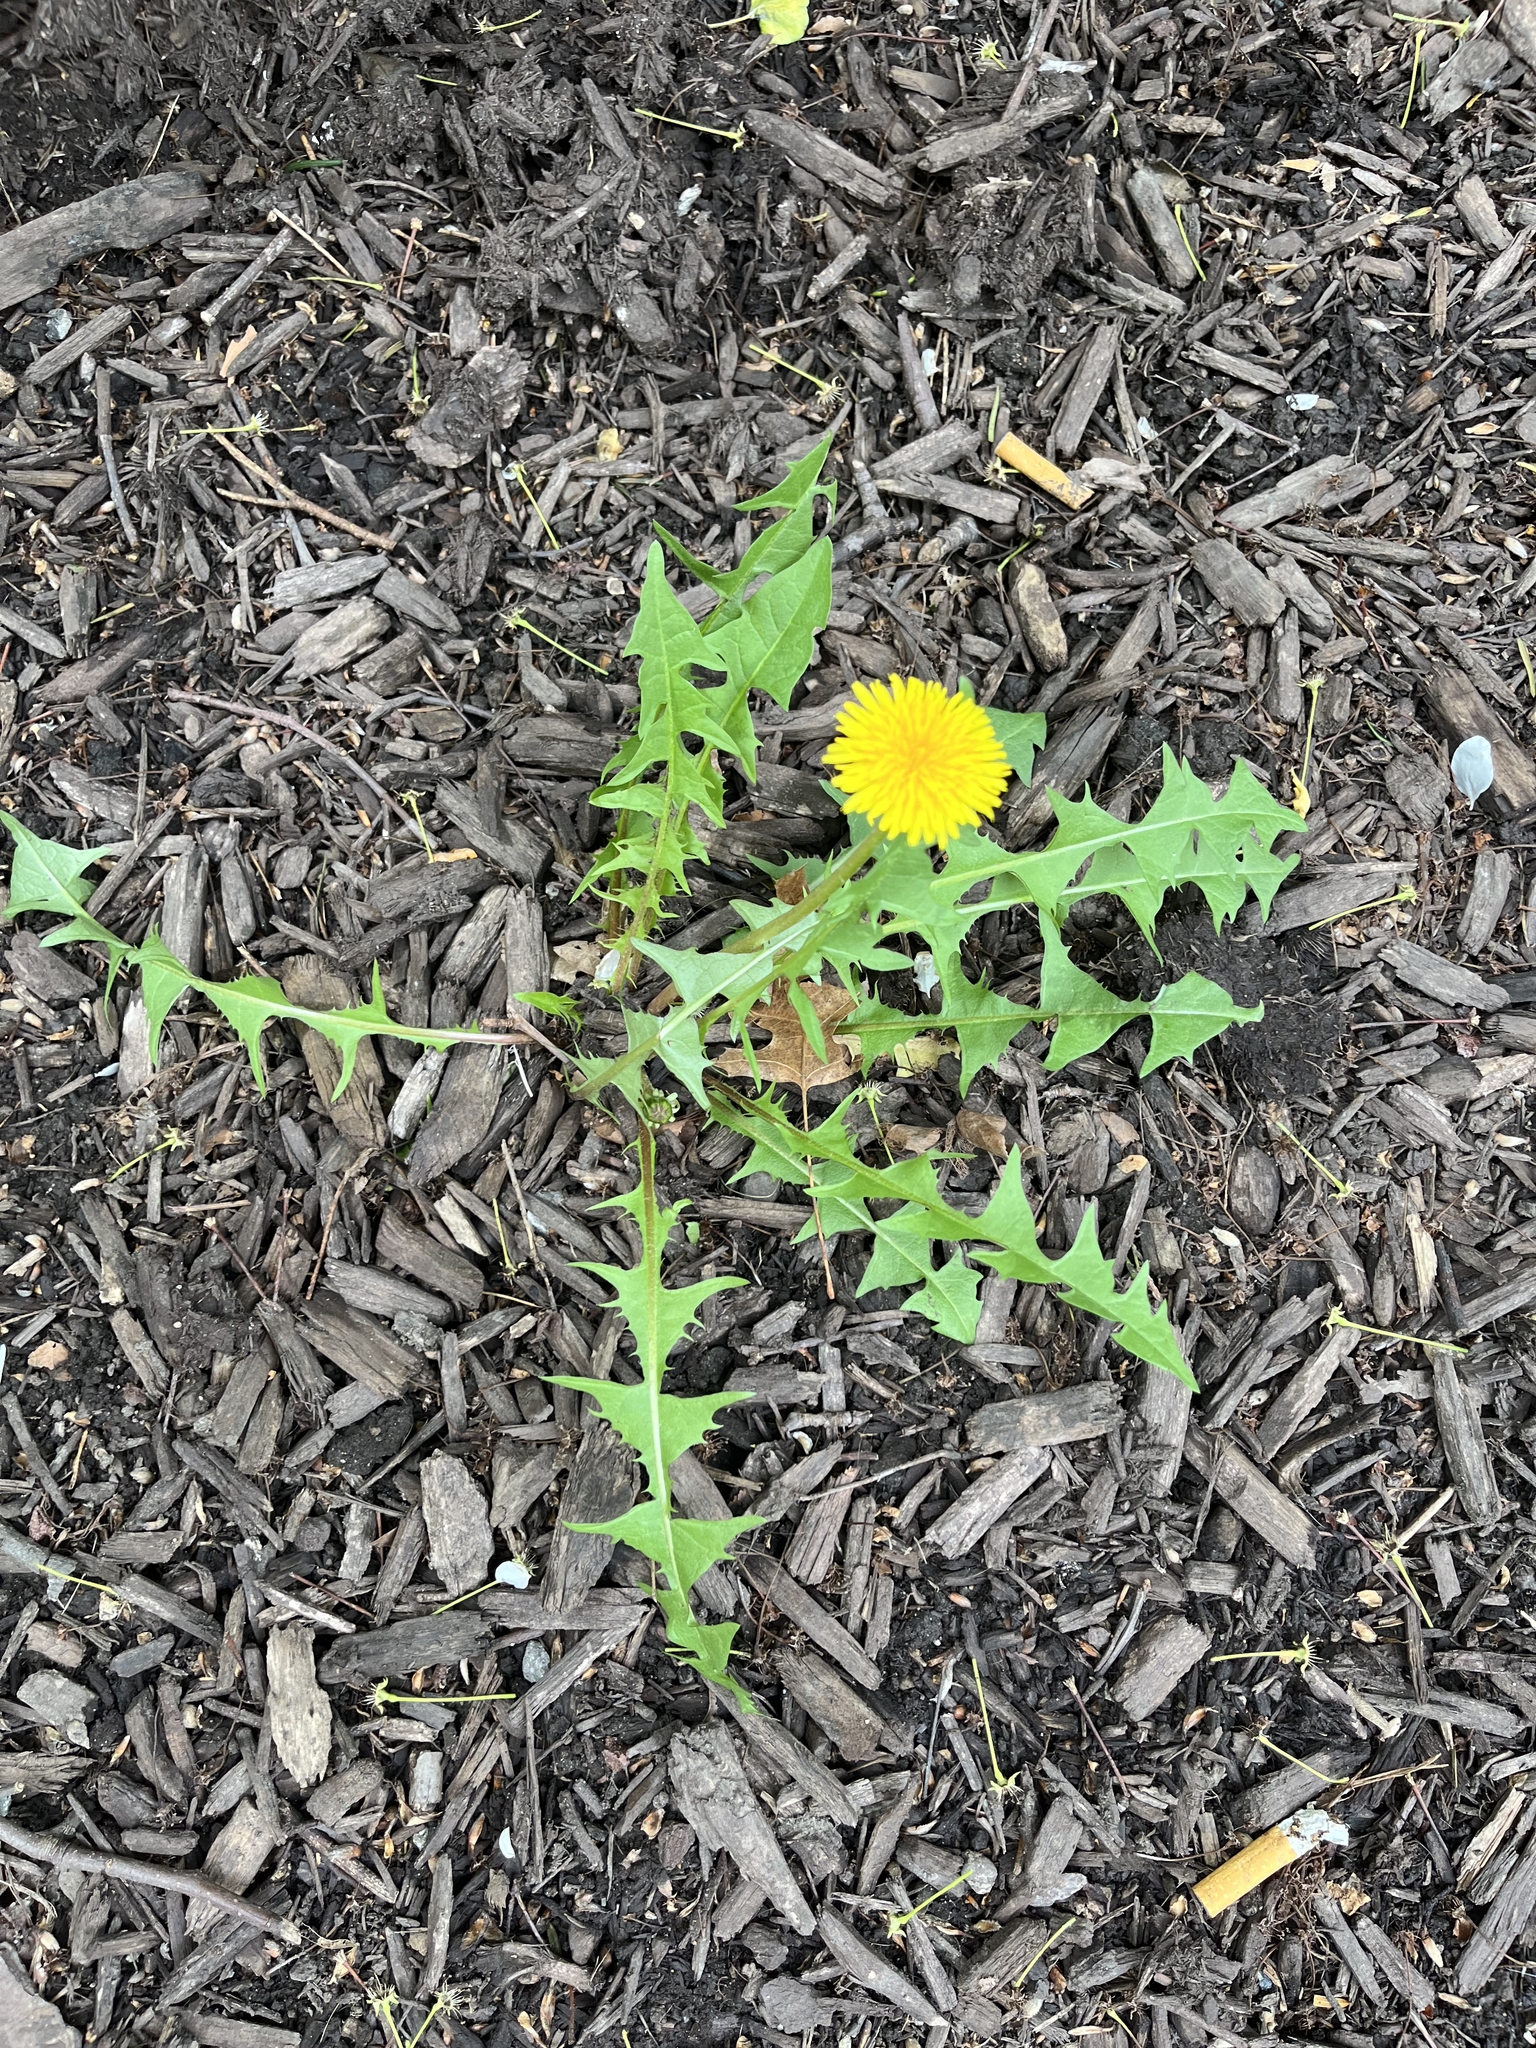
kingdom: Plantae
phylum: Tracheophyta
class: Magnoliopsida
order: Asterales
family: Asteraceae
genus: Taraxacum
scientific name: Taraxacum officinale
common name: Common dandelion
